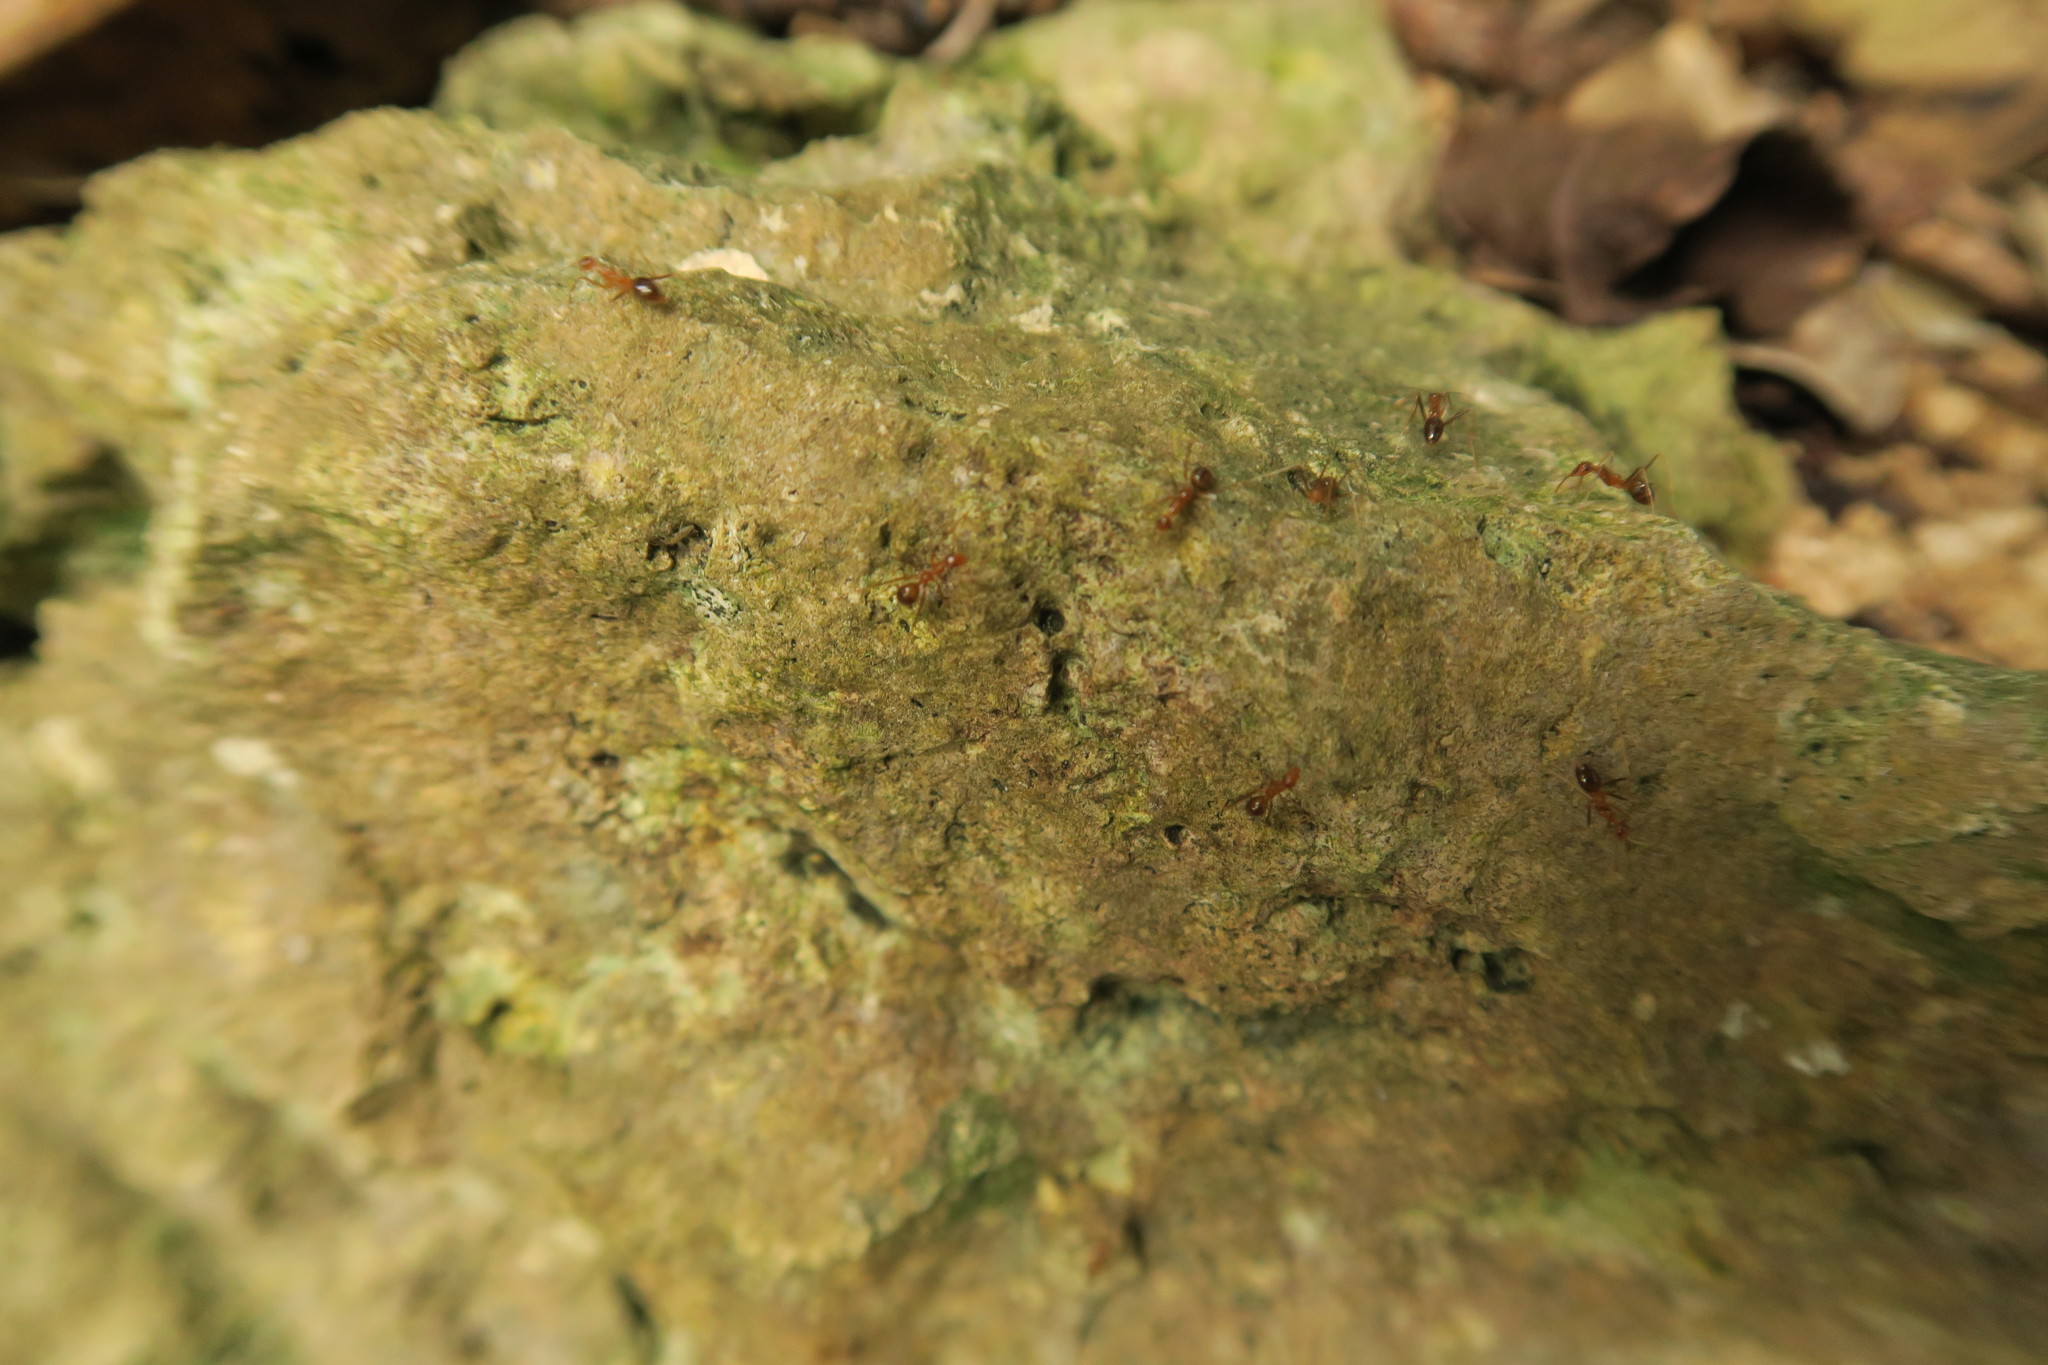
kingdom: Animalia
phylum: Arthropoda
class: Insecta
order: Hymenoptera
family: Formicidae
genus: Anoplolepis
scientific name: Anoplolepis gracilipes
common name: Ant
